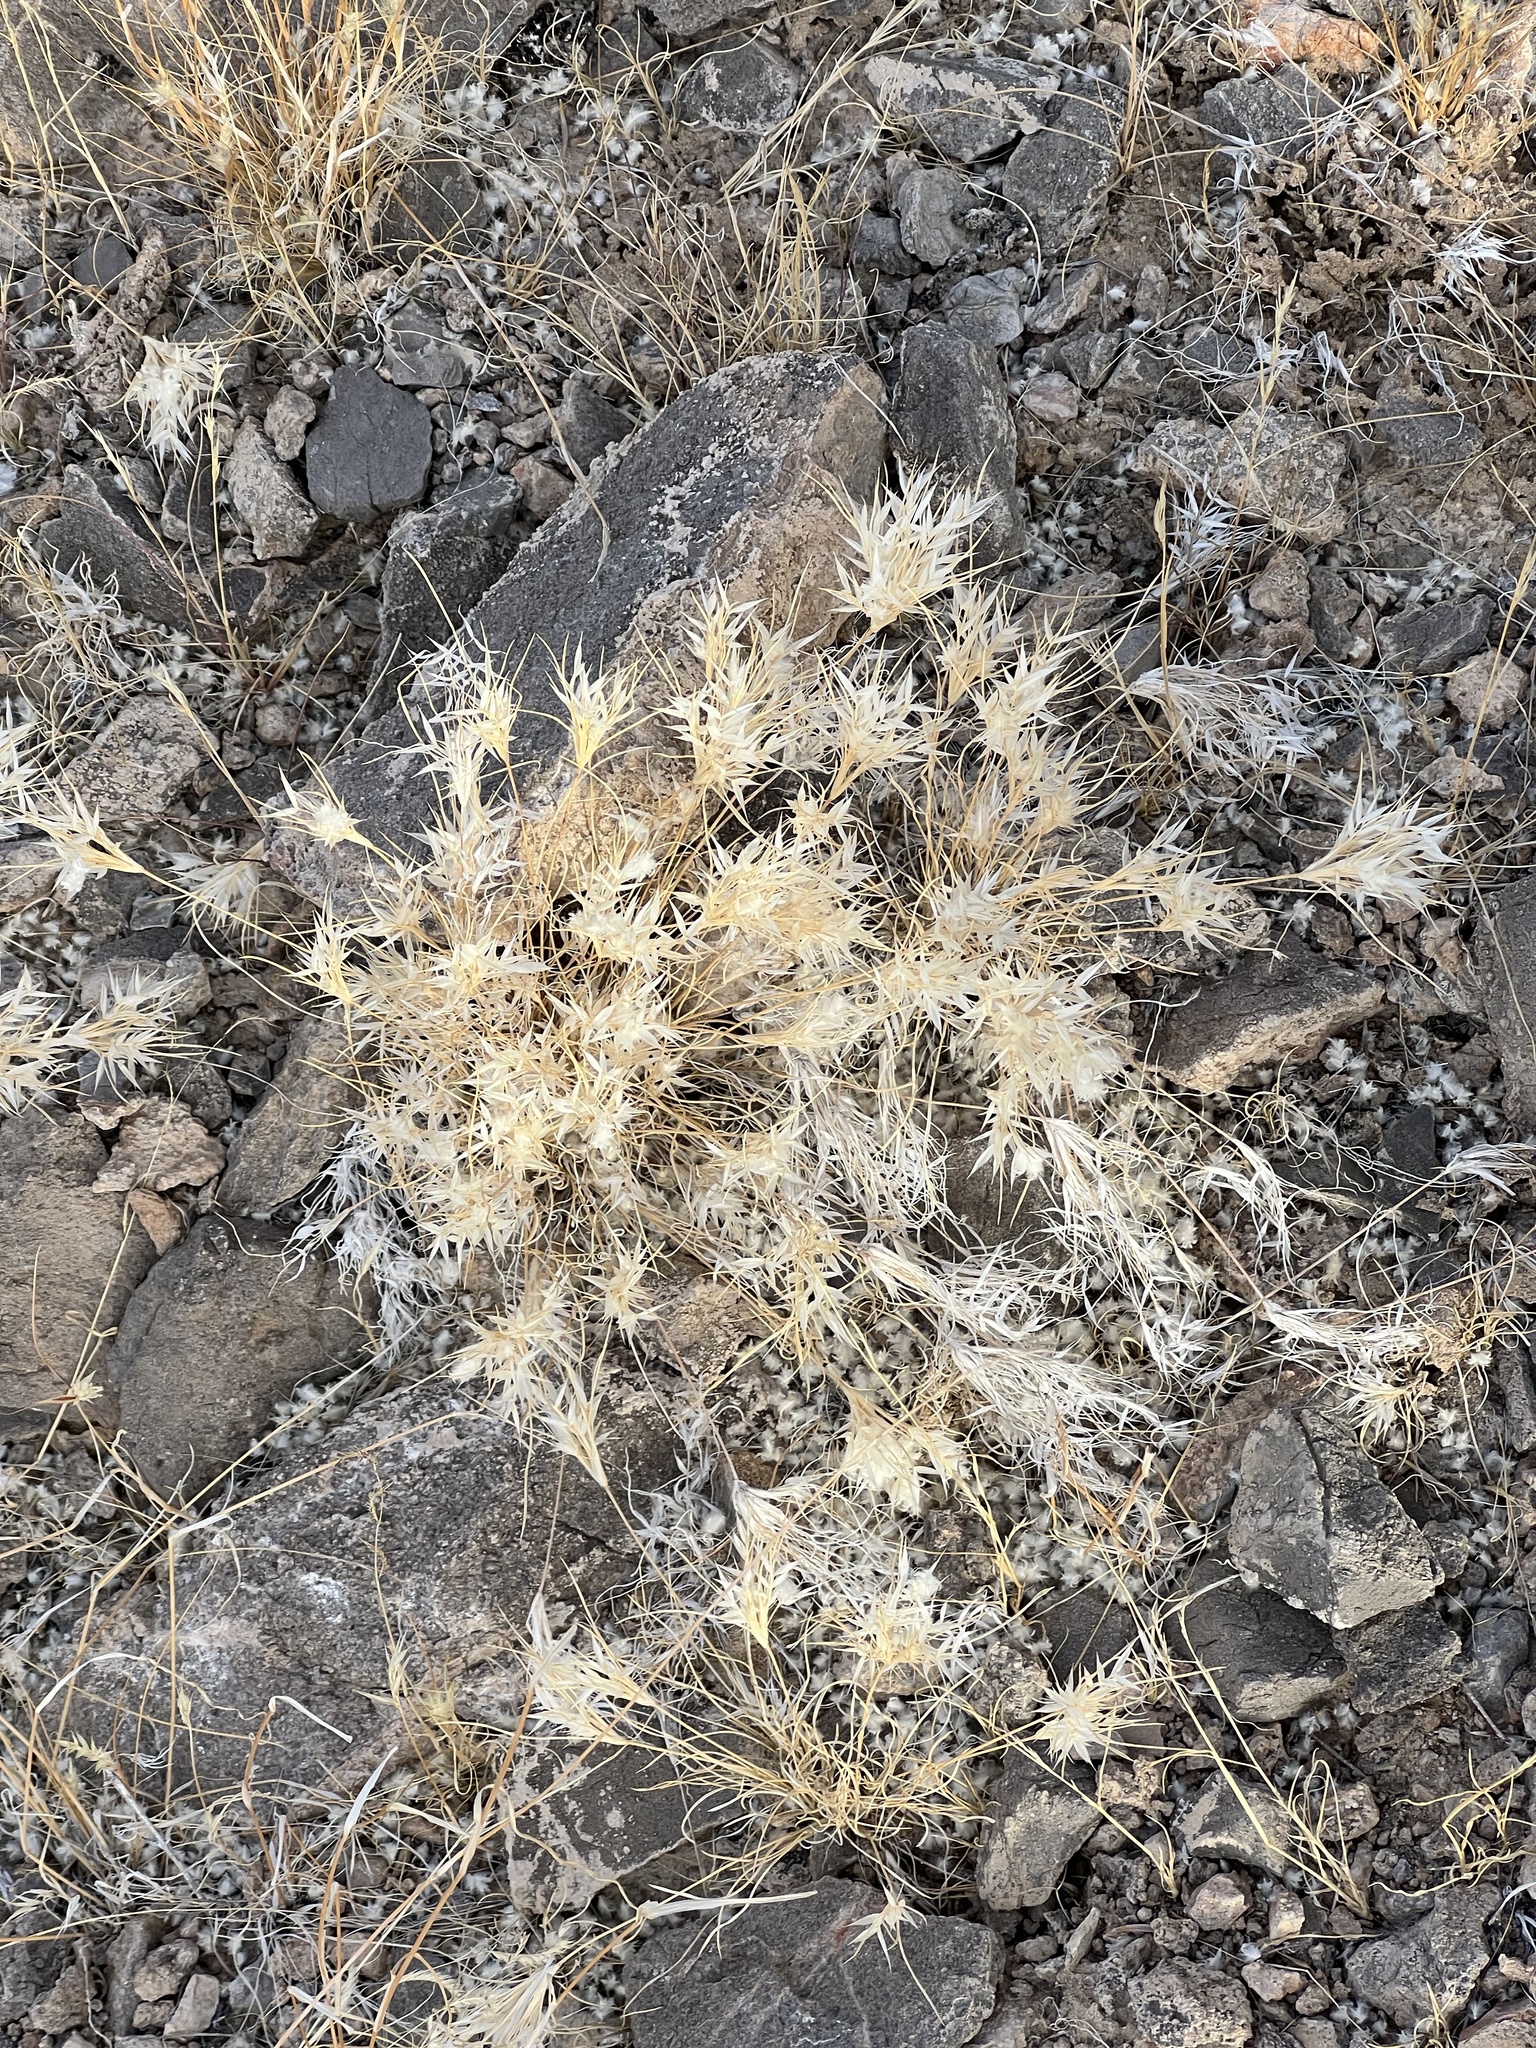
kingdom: Plantae
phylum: Tracheophyta
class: Liliopsida
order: Poales
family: Poaceae
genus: Dasyochloa
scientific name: Dasyochloa pulchella
